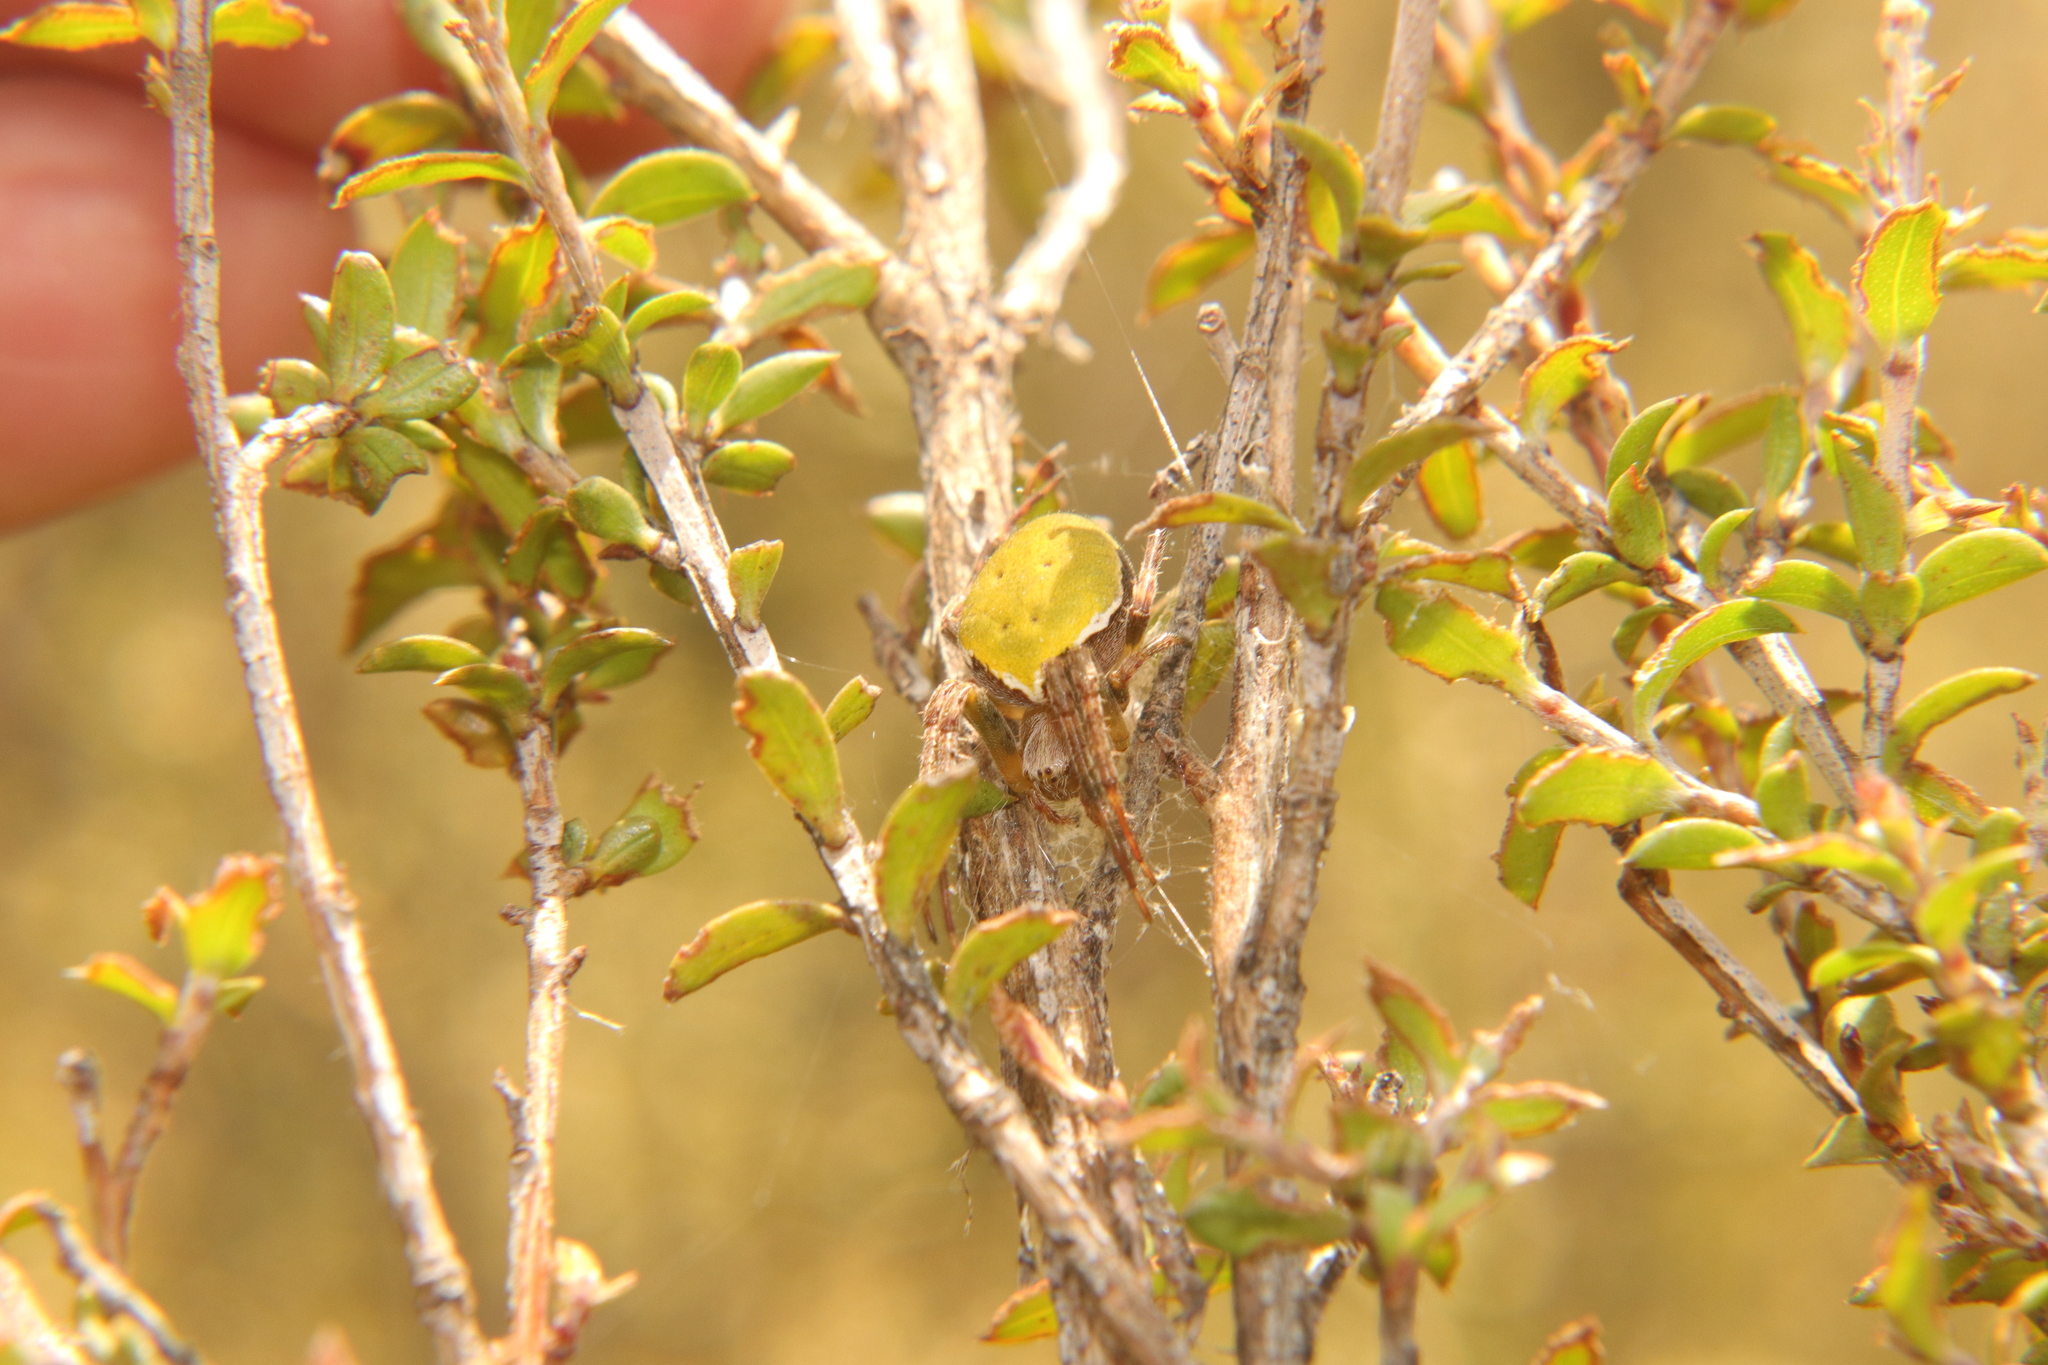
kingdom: Animalia
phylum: Arthropoda
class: Arachnida
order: Araneae
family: Araneidae
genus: Colaranea
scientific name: Colaranea viriditas
